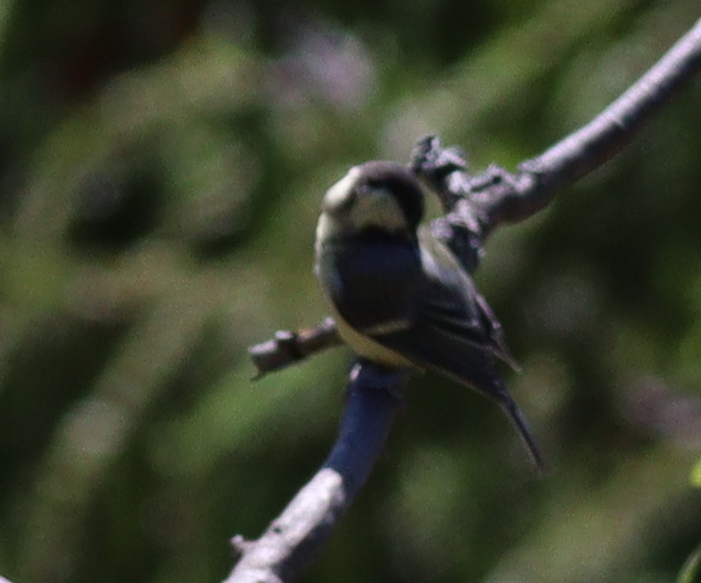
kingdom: Animalia
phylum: Chordata
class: Aves
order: Passeriformes
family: Paridae
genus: Parus
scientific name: Parus major
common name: Great tit
